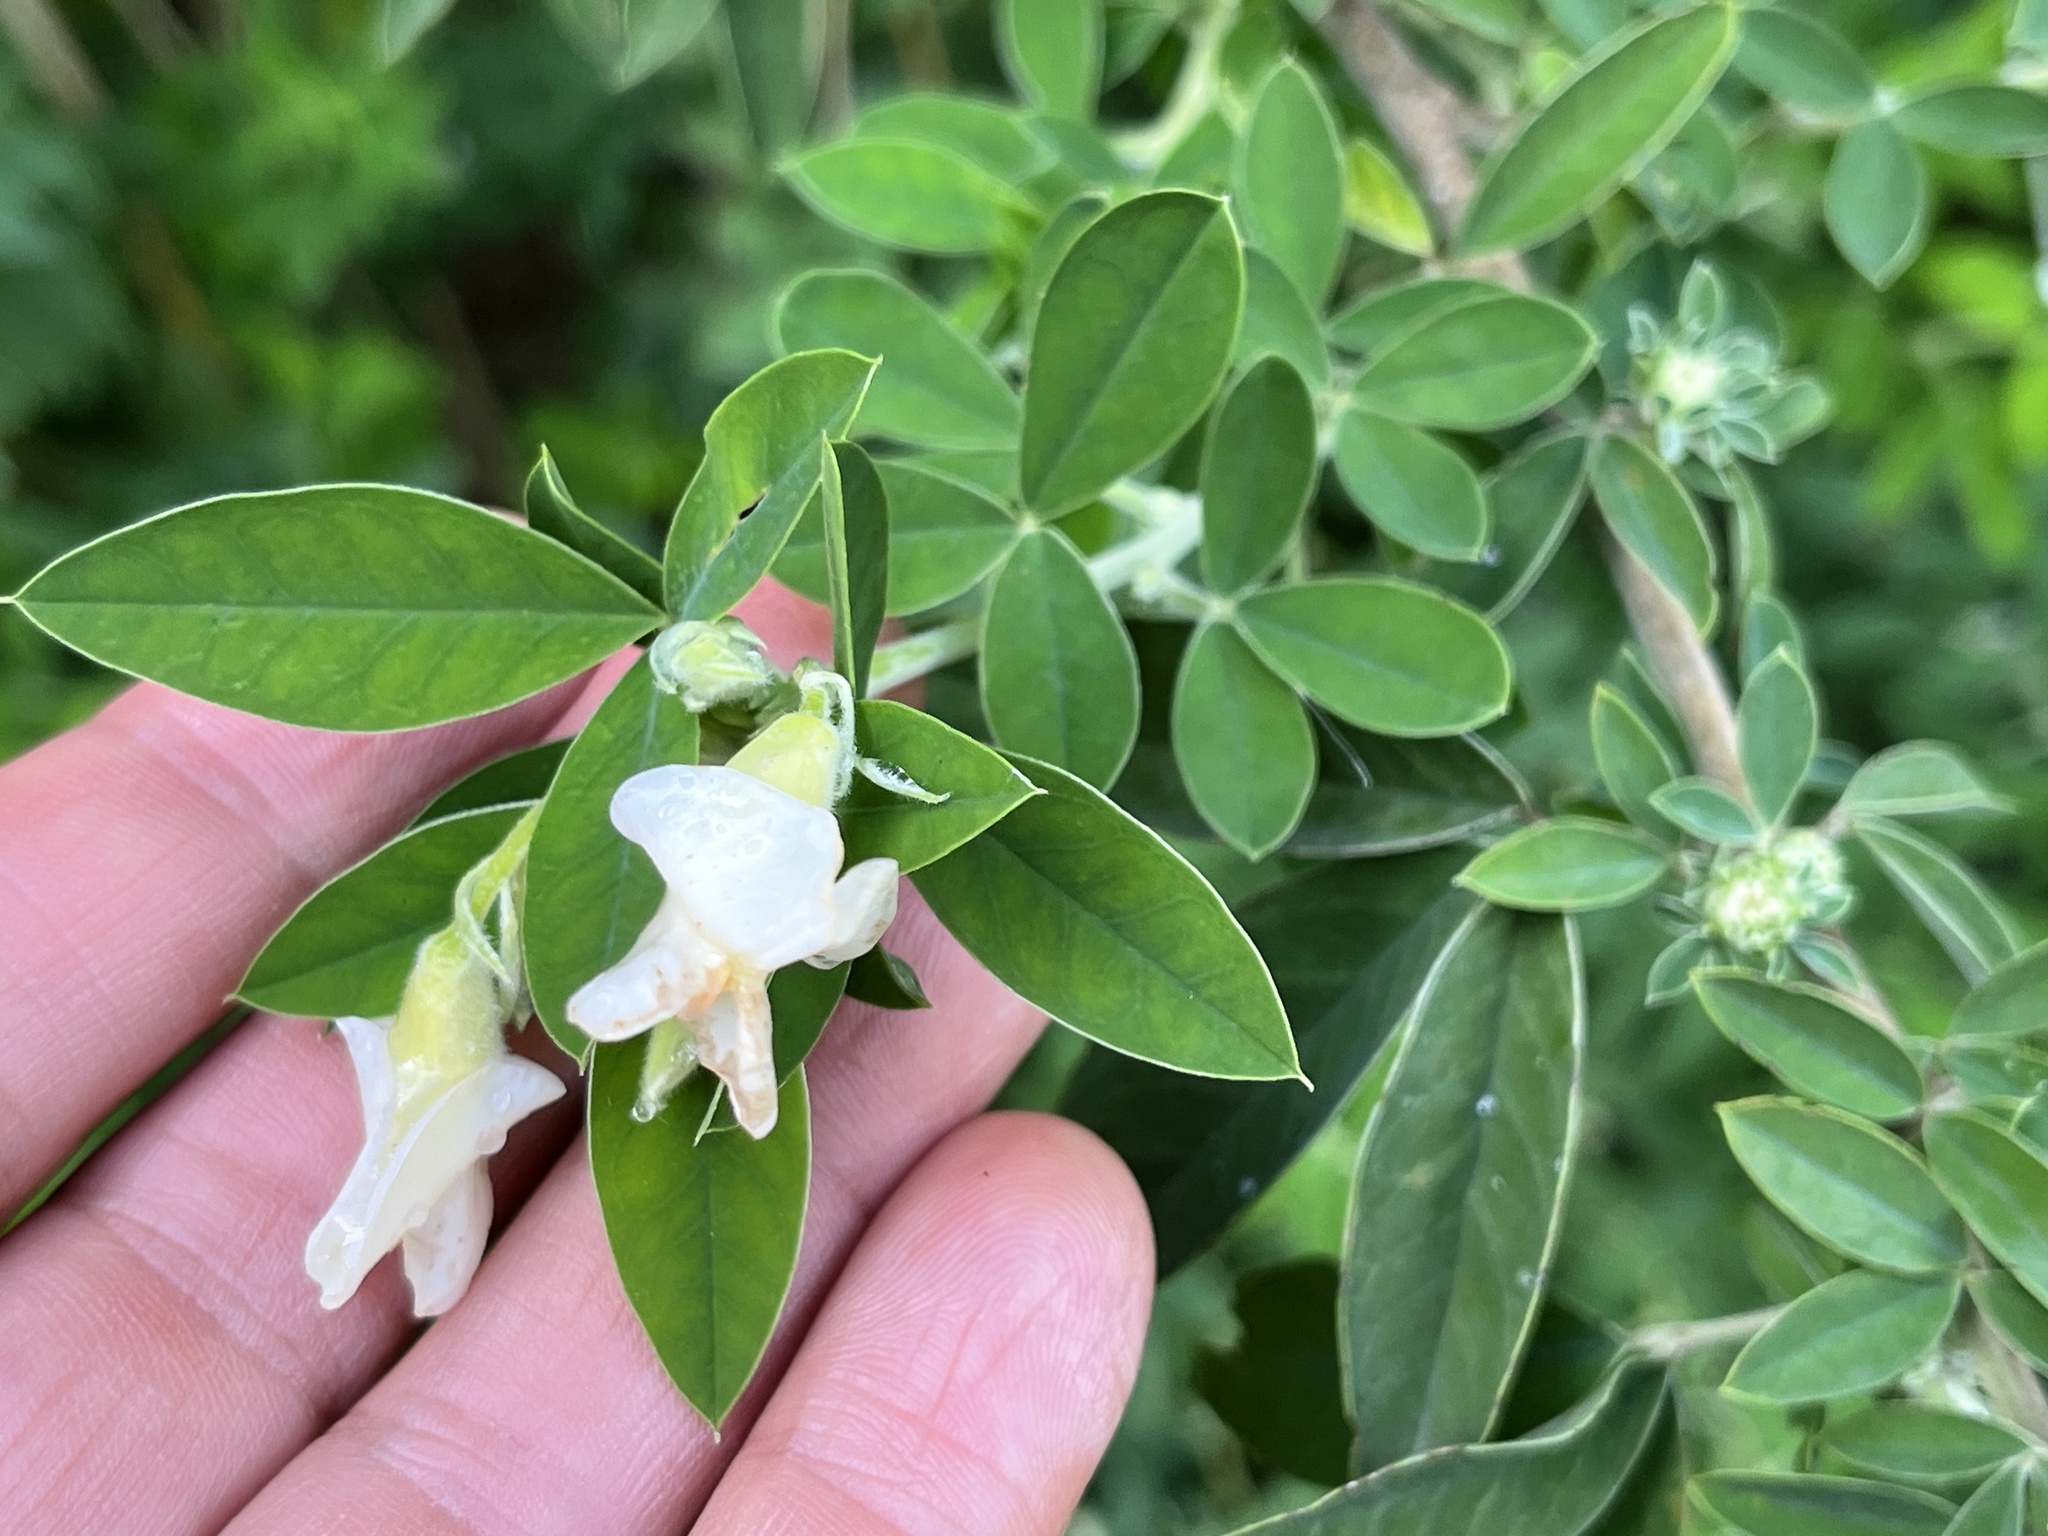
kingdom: Plantae
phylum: Tracheophyta
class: Magnoliopsida
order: Fabales
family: Fabaceae
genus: Chamaecytisus
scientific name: Chamaecytisus prolifer
